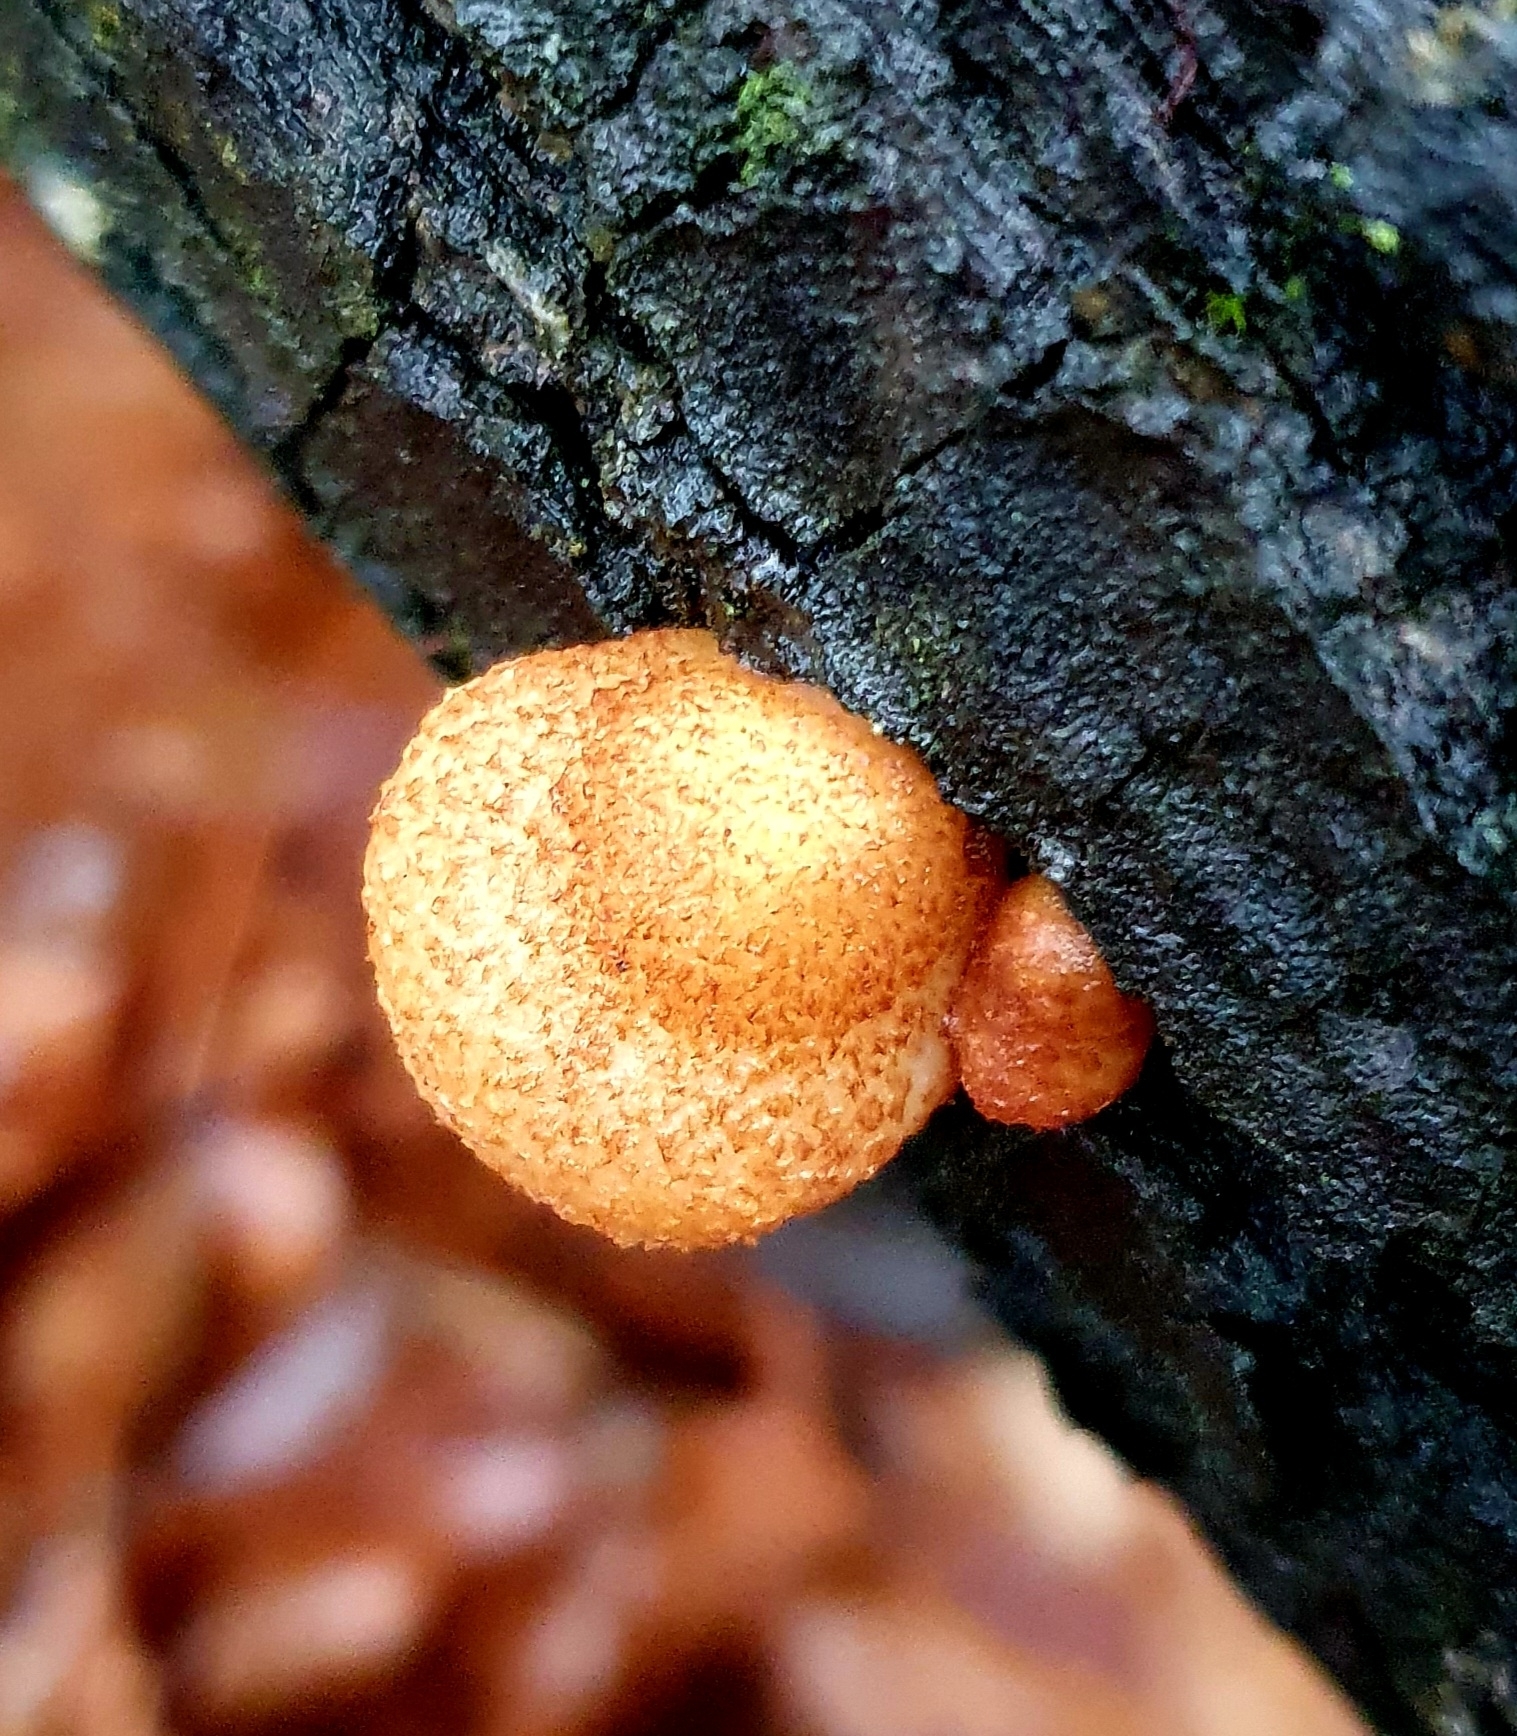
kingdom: Fungi
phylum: Basidiomycota
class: Agaricomycetes
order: Agaricales
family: Crepidotaceae
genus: Crepidotus
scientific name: Crepidotus calolepis
